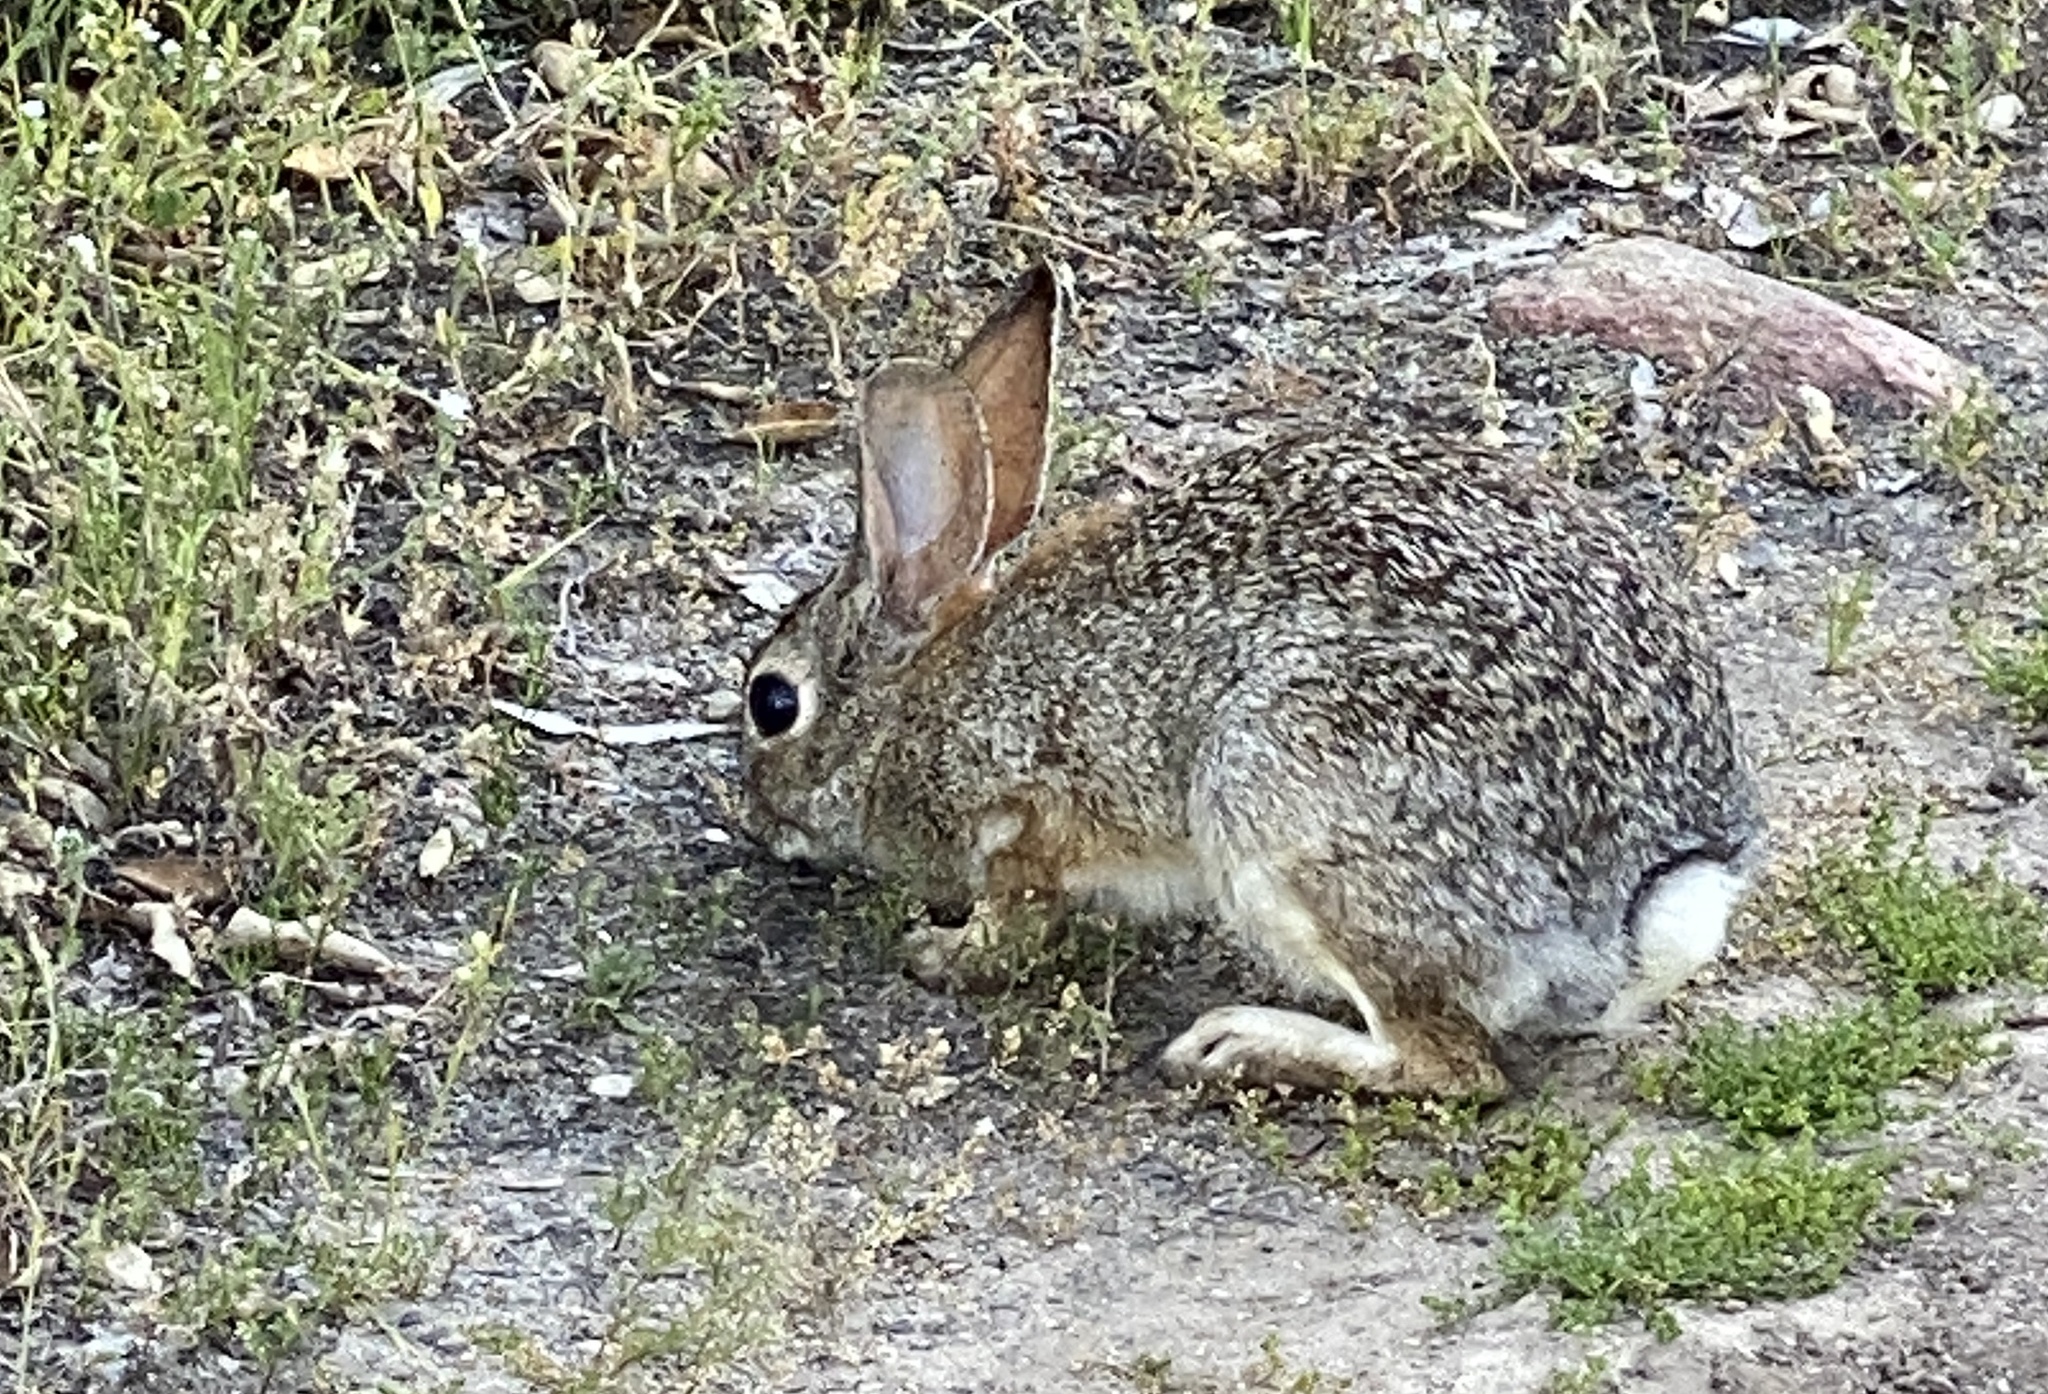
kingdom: Animalia
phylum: Chordata
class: Mammalia
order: Lagomorpha
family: Leporidae
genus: Sylvilagus
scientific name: Sylvilagus audubonii
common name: Desert cottontail
